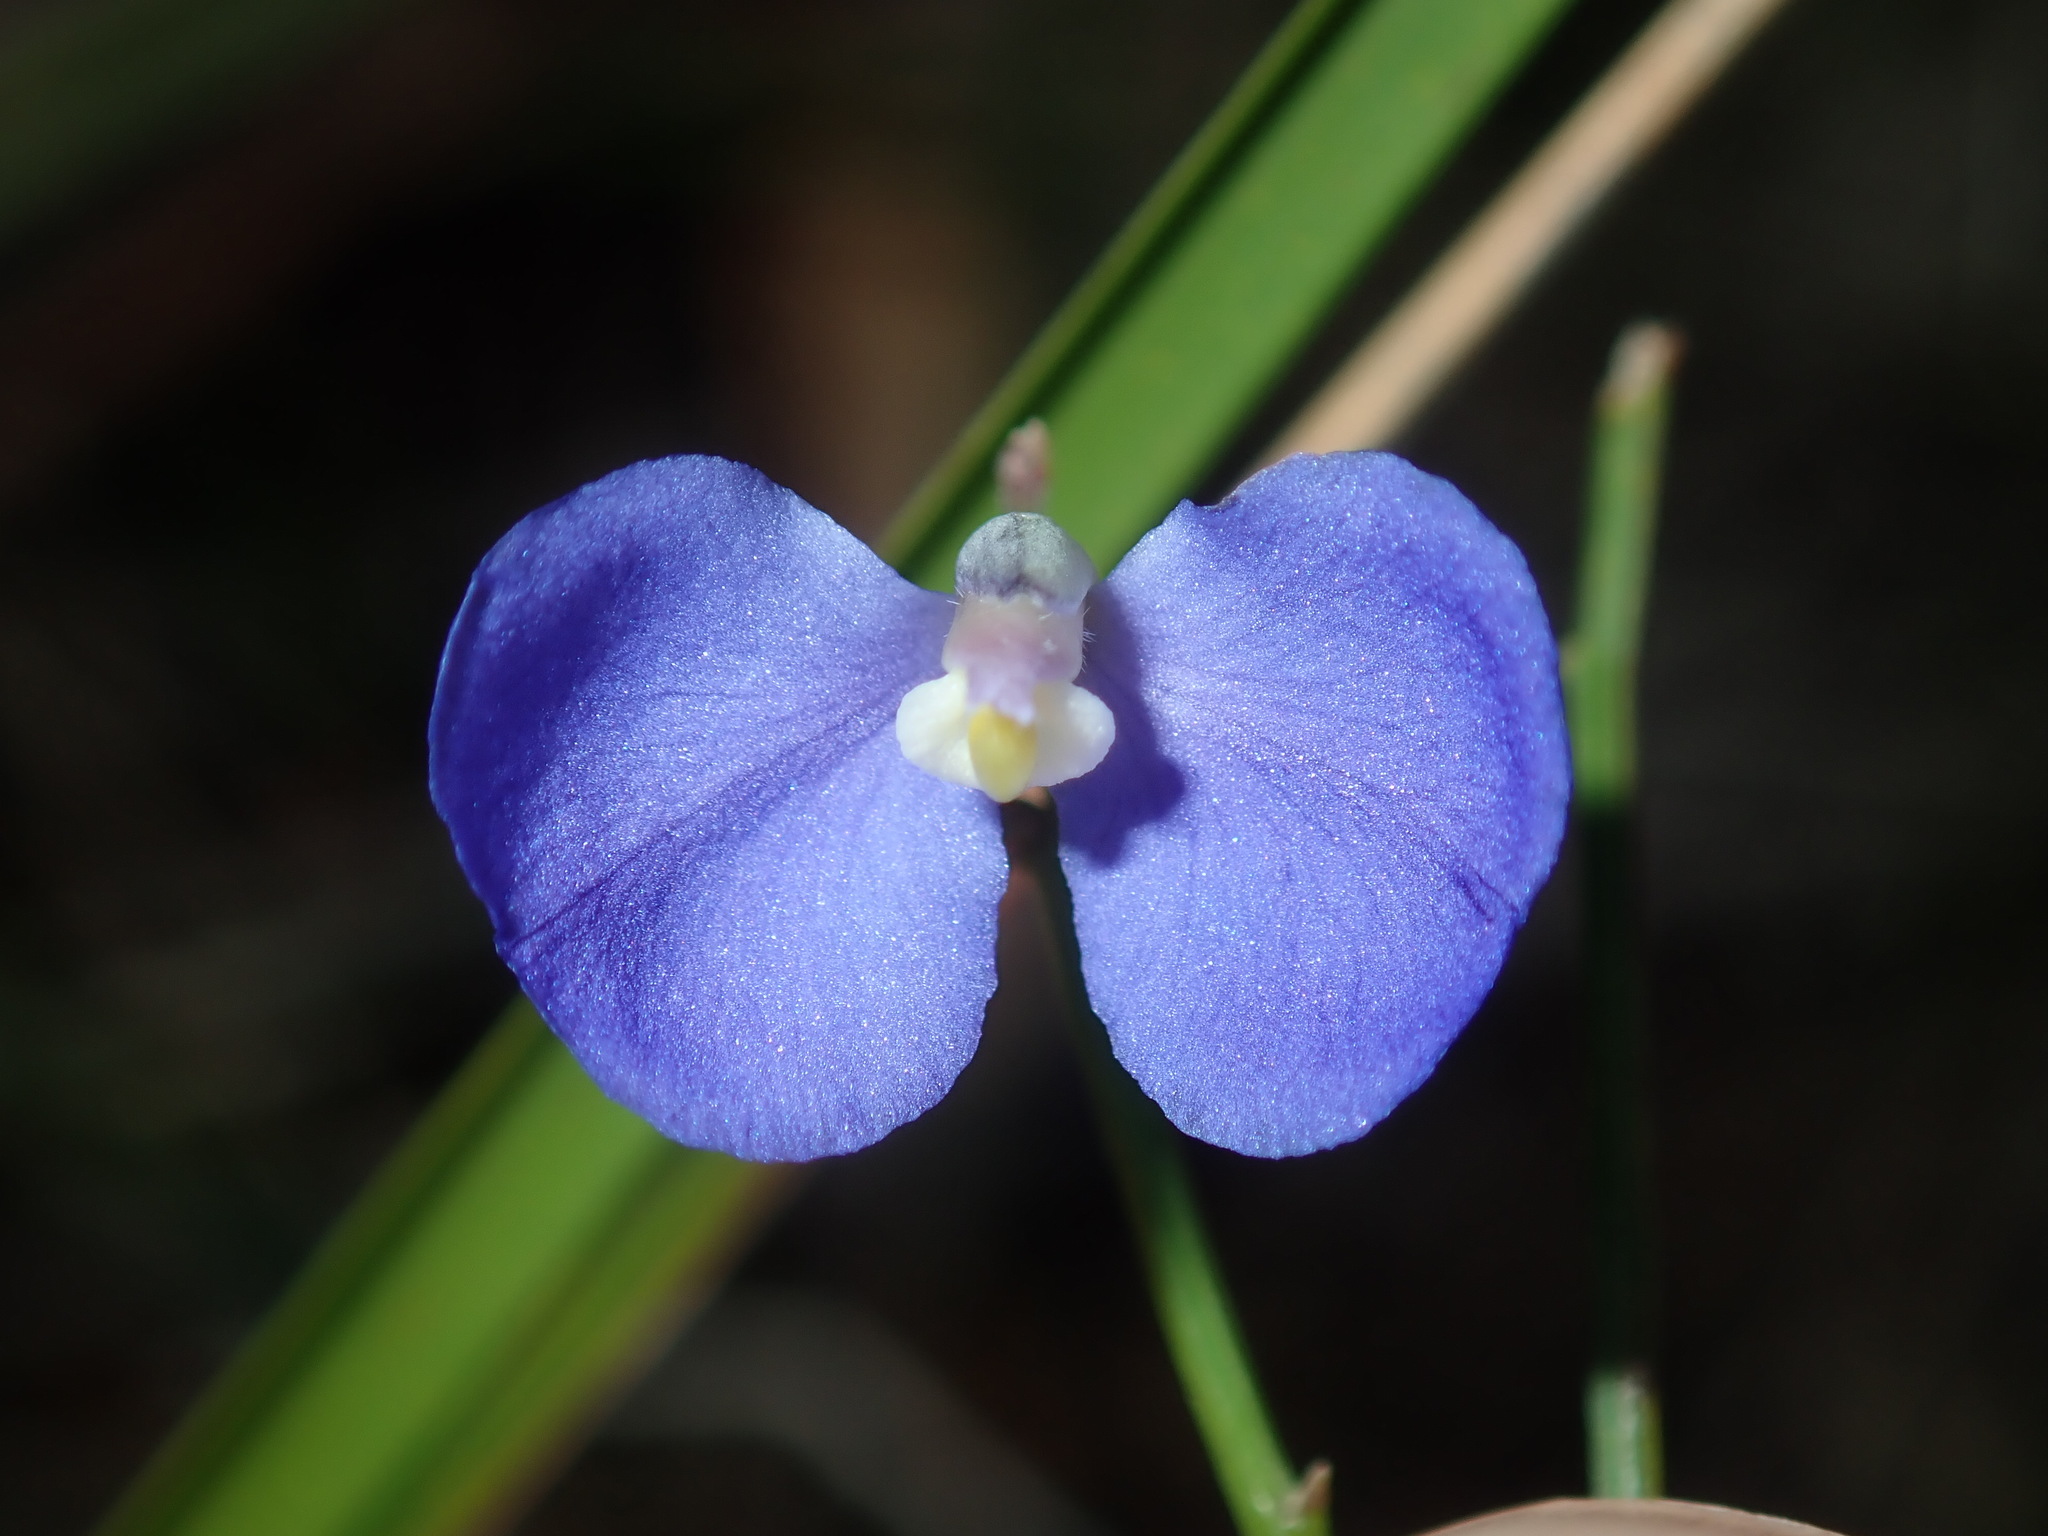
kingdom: Plantae
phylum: Tracheophyta
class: Magnoliopsida
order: Fabales
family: Polygalaceae
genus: Comesperma
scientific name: Comesperma sphaerocarpum
